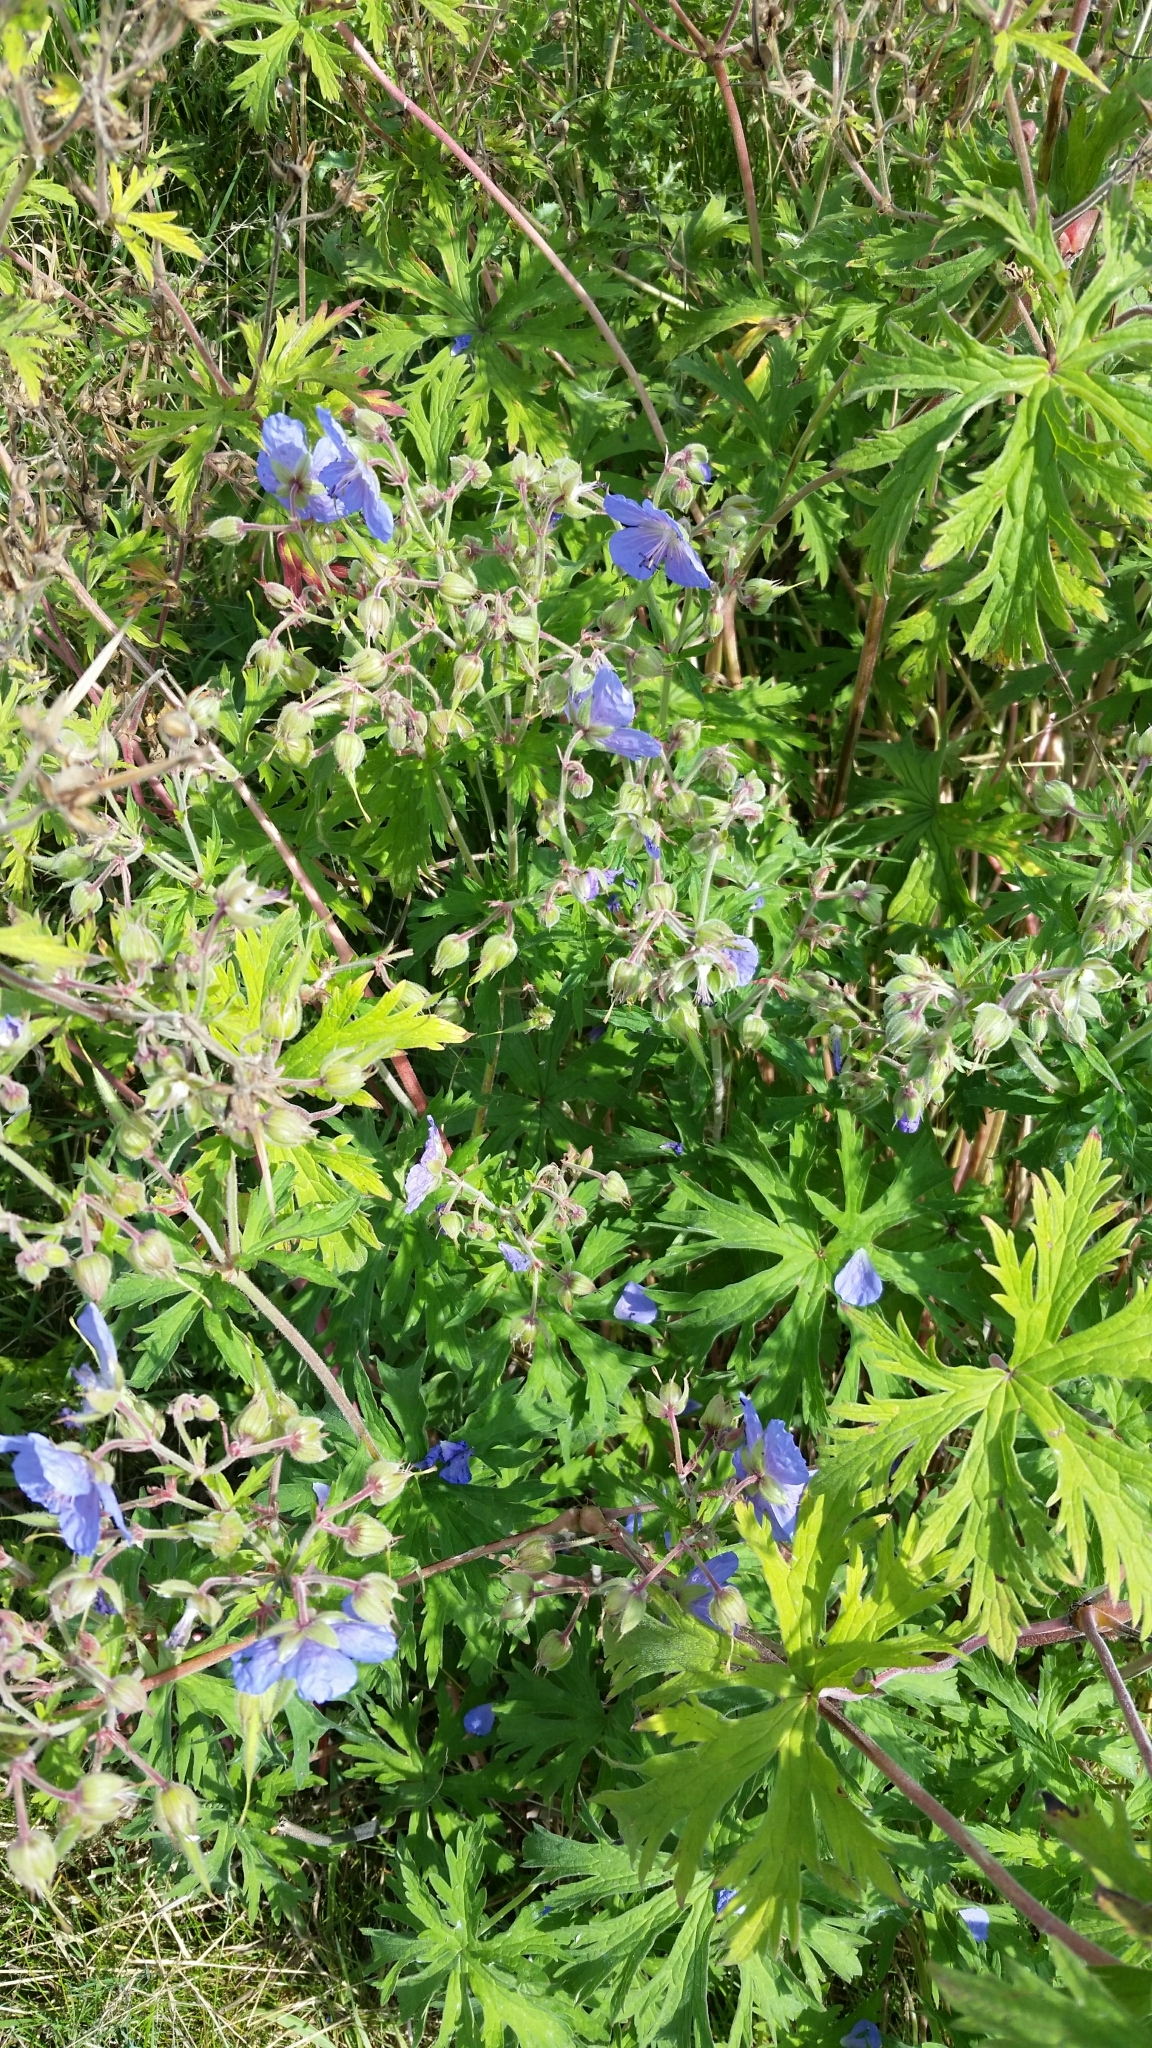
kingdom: Plantae
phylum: Tracheophyta
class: Magnoliopsida
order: Geraniales
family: Geraniaceae
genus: Geranium
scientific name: Geranium pratense
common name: Meadow crane's-bill
